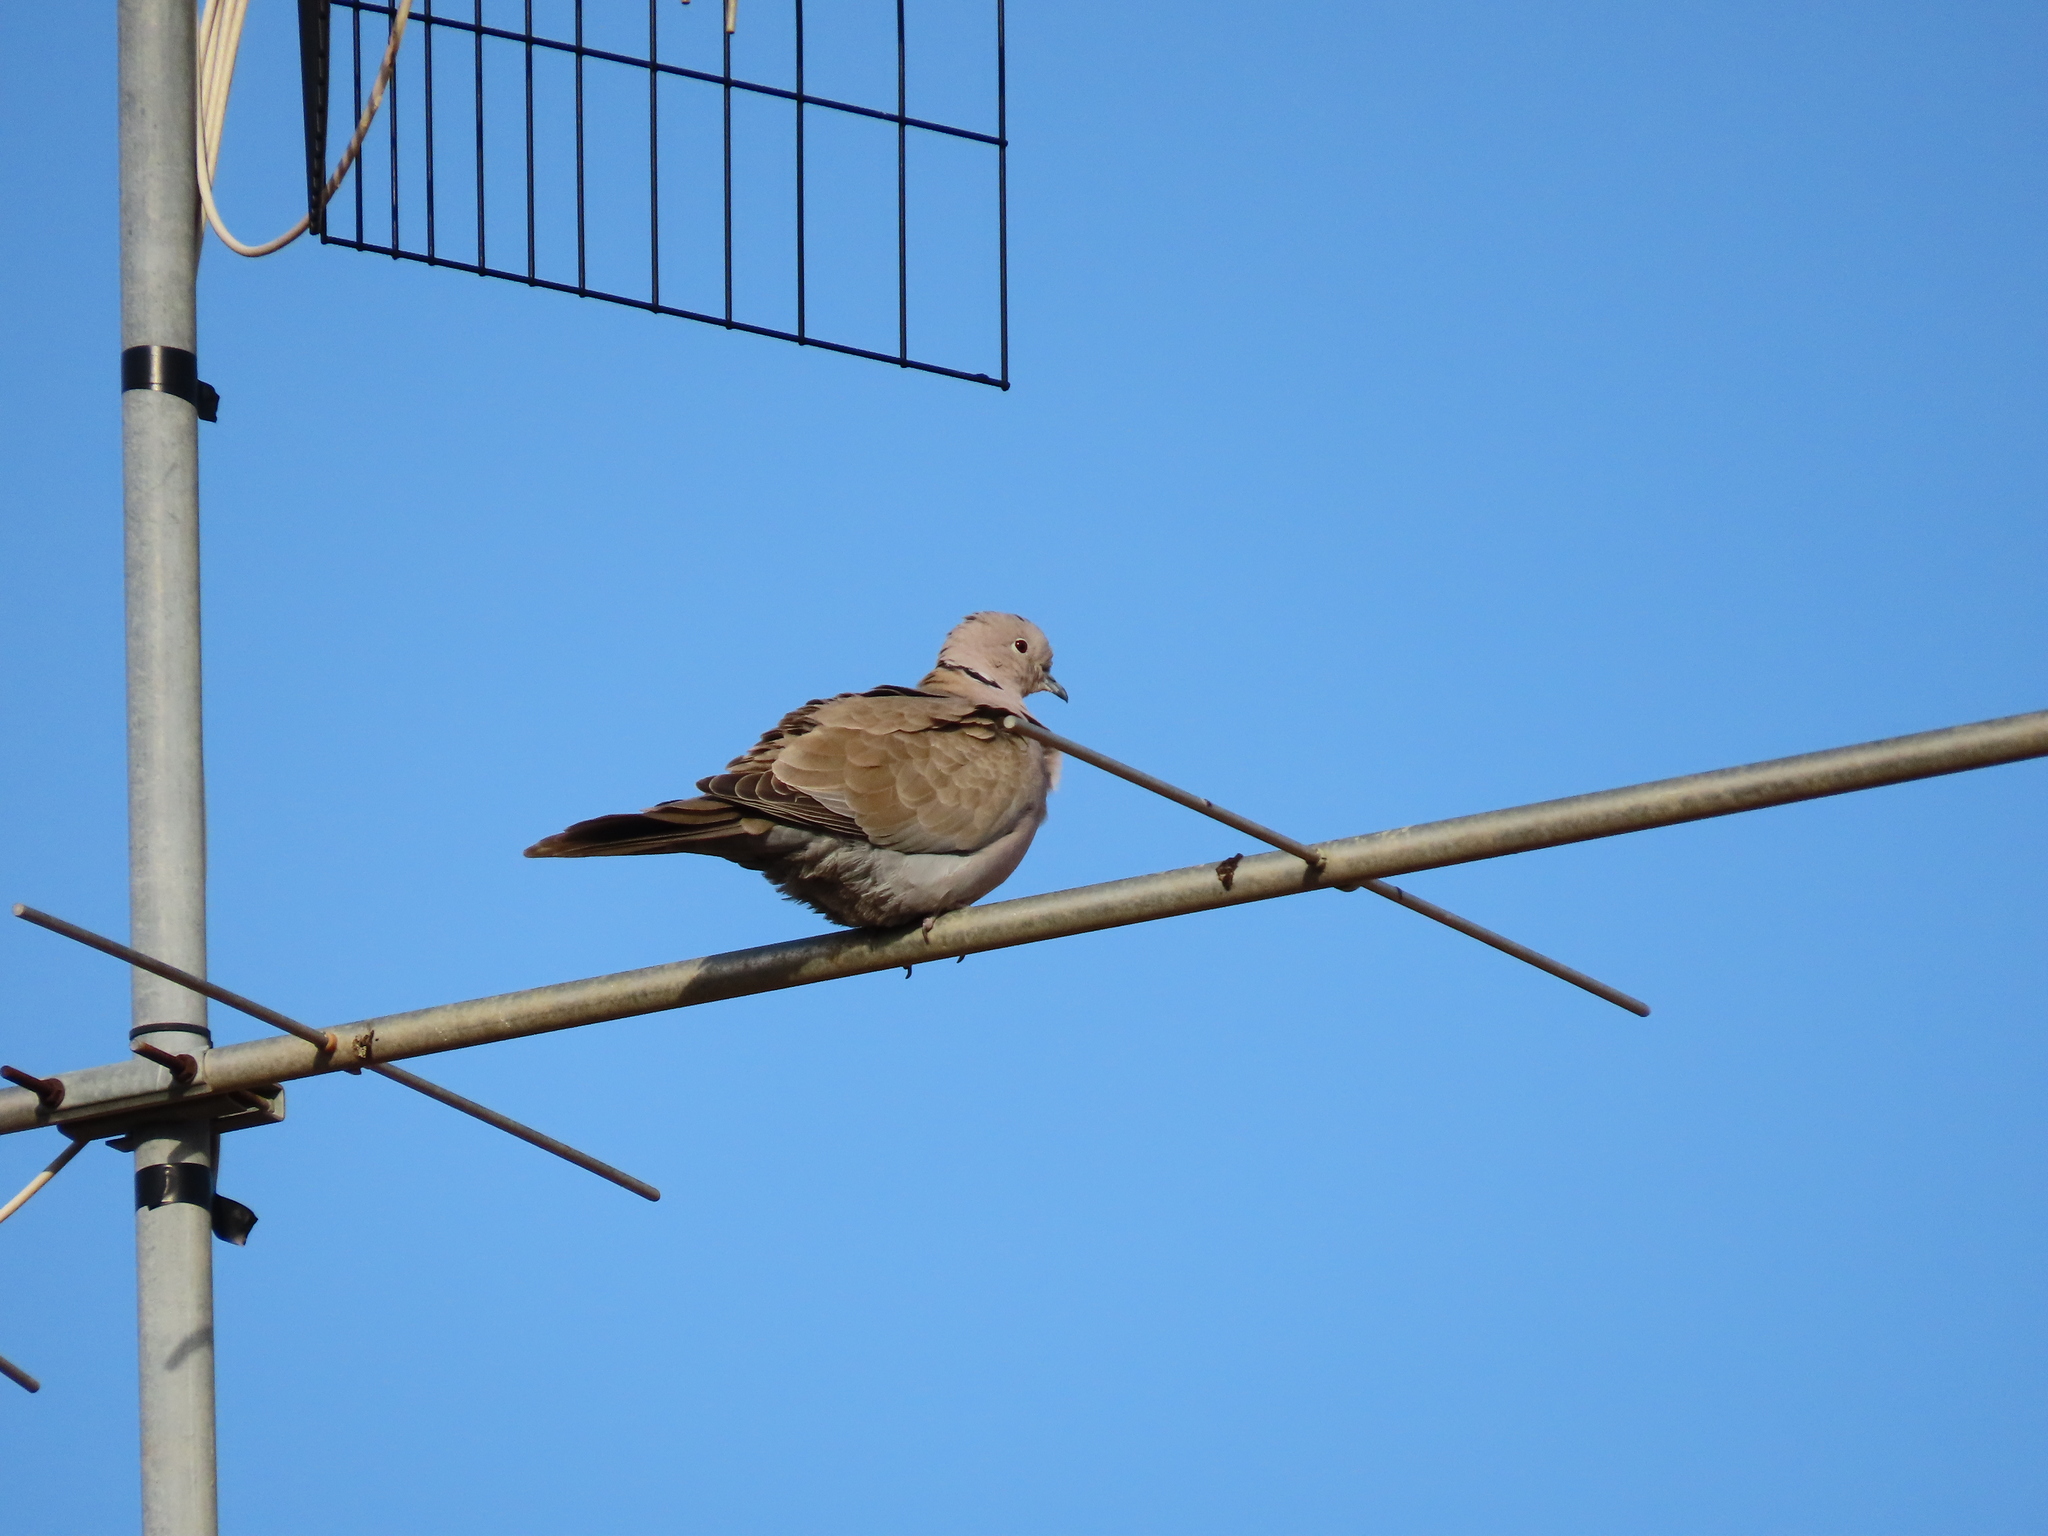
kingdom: Animalia
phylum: Chordata
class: Aves
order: Columbiformes
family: Columbidae
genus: Streptopelia
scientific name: Streptopelia decaocto
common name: Eurasian collared dove
